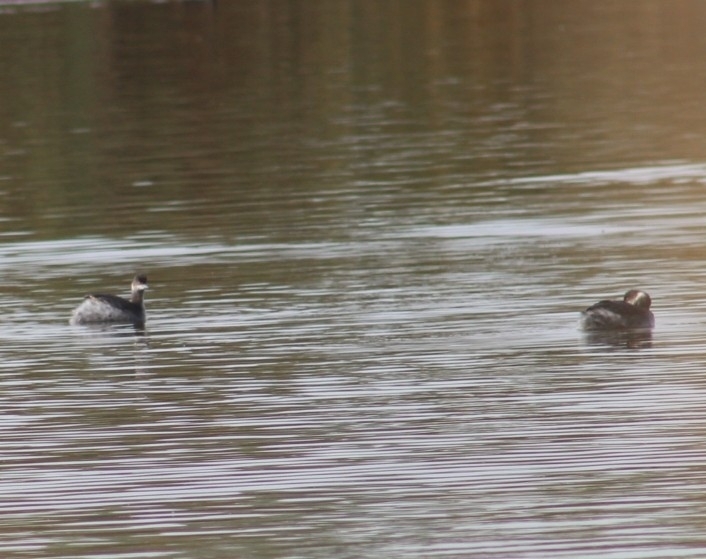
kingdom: Animalia
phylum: Chordata
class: Aves
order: Podicipediformes
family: Podicipedidae
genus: Podiceps
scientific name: Podiceps nigricollis
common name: Black-necked grebe
